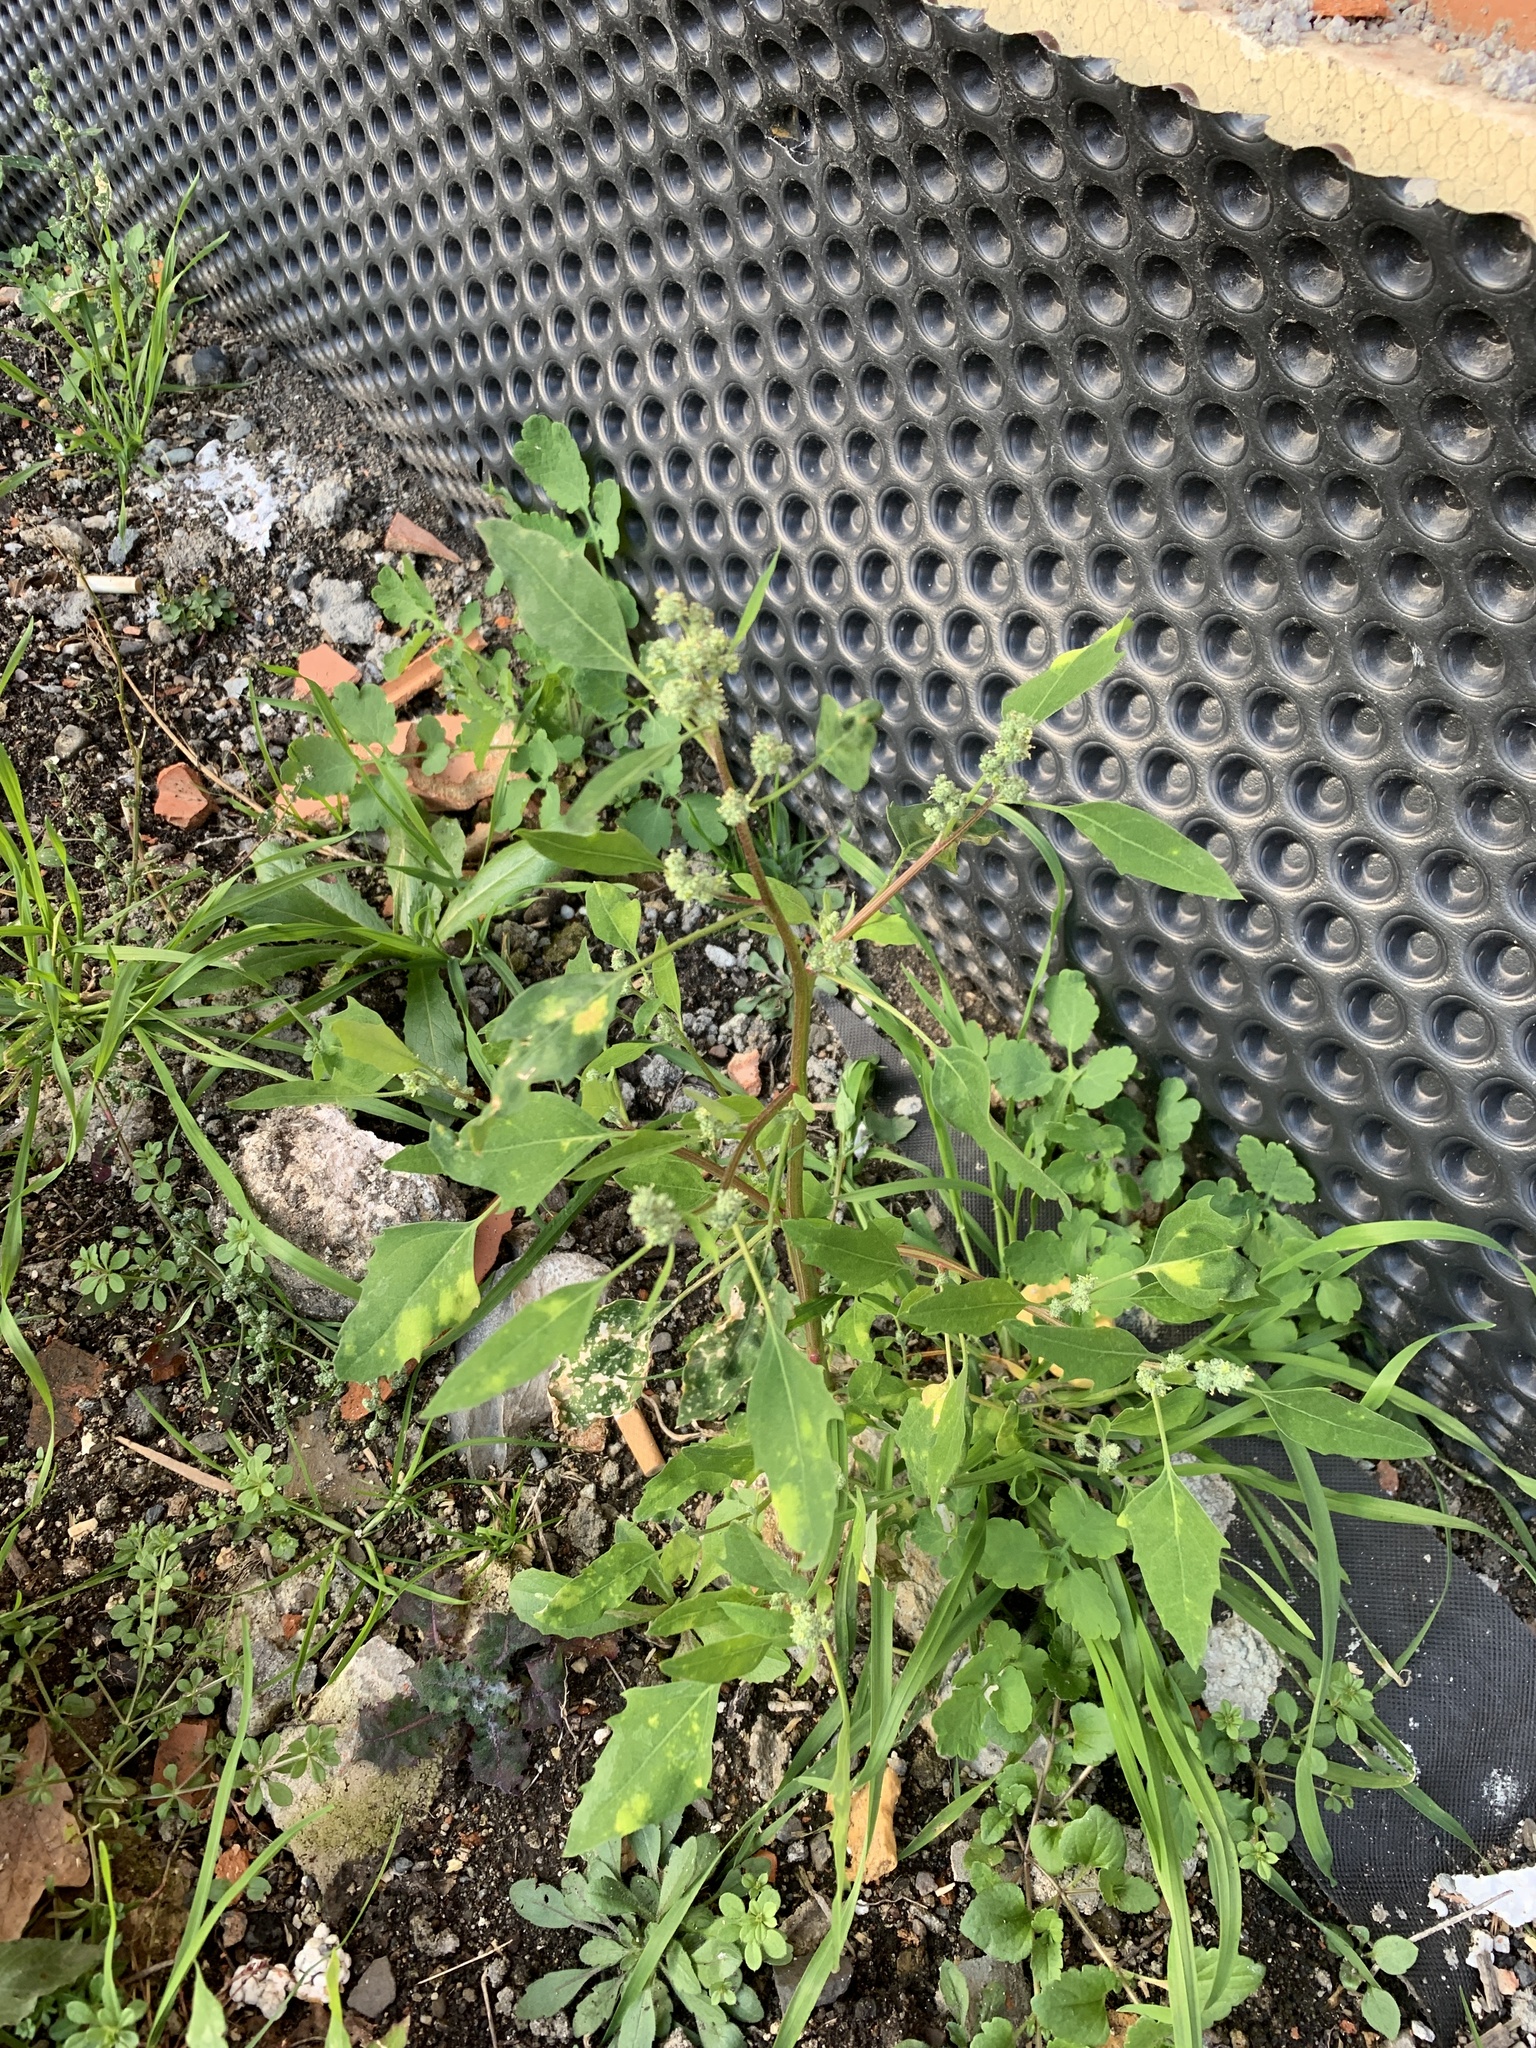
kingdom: Plantae
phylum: Tracheophyta
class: Magnoliopsida
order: Caryophyllales
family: Amaranthaceae
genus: Chenopodium
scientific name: Chenopodium album
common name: Fat-hen
